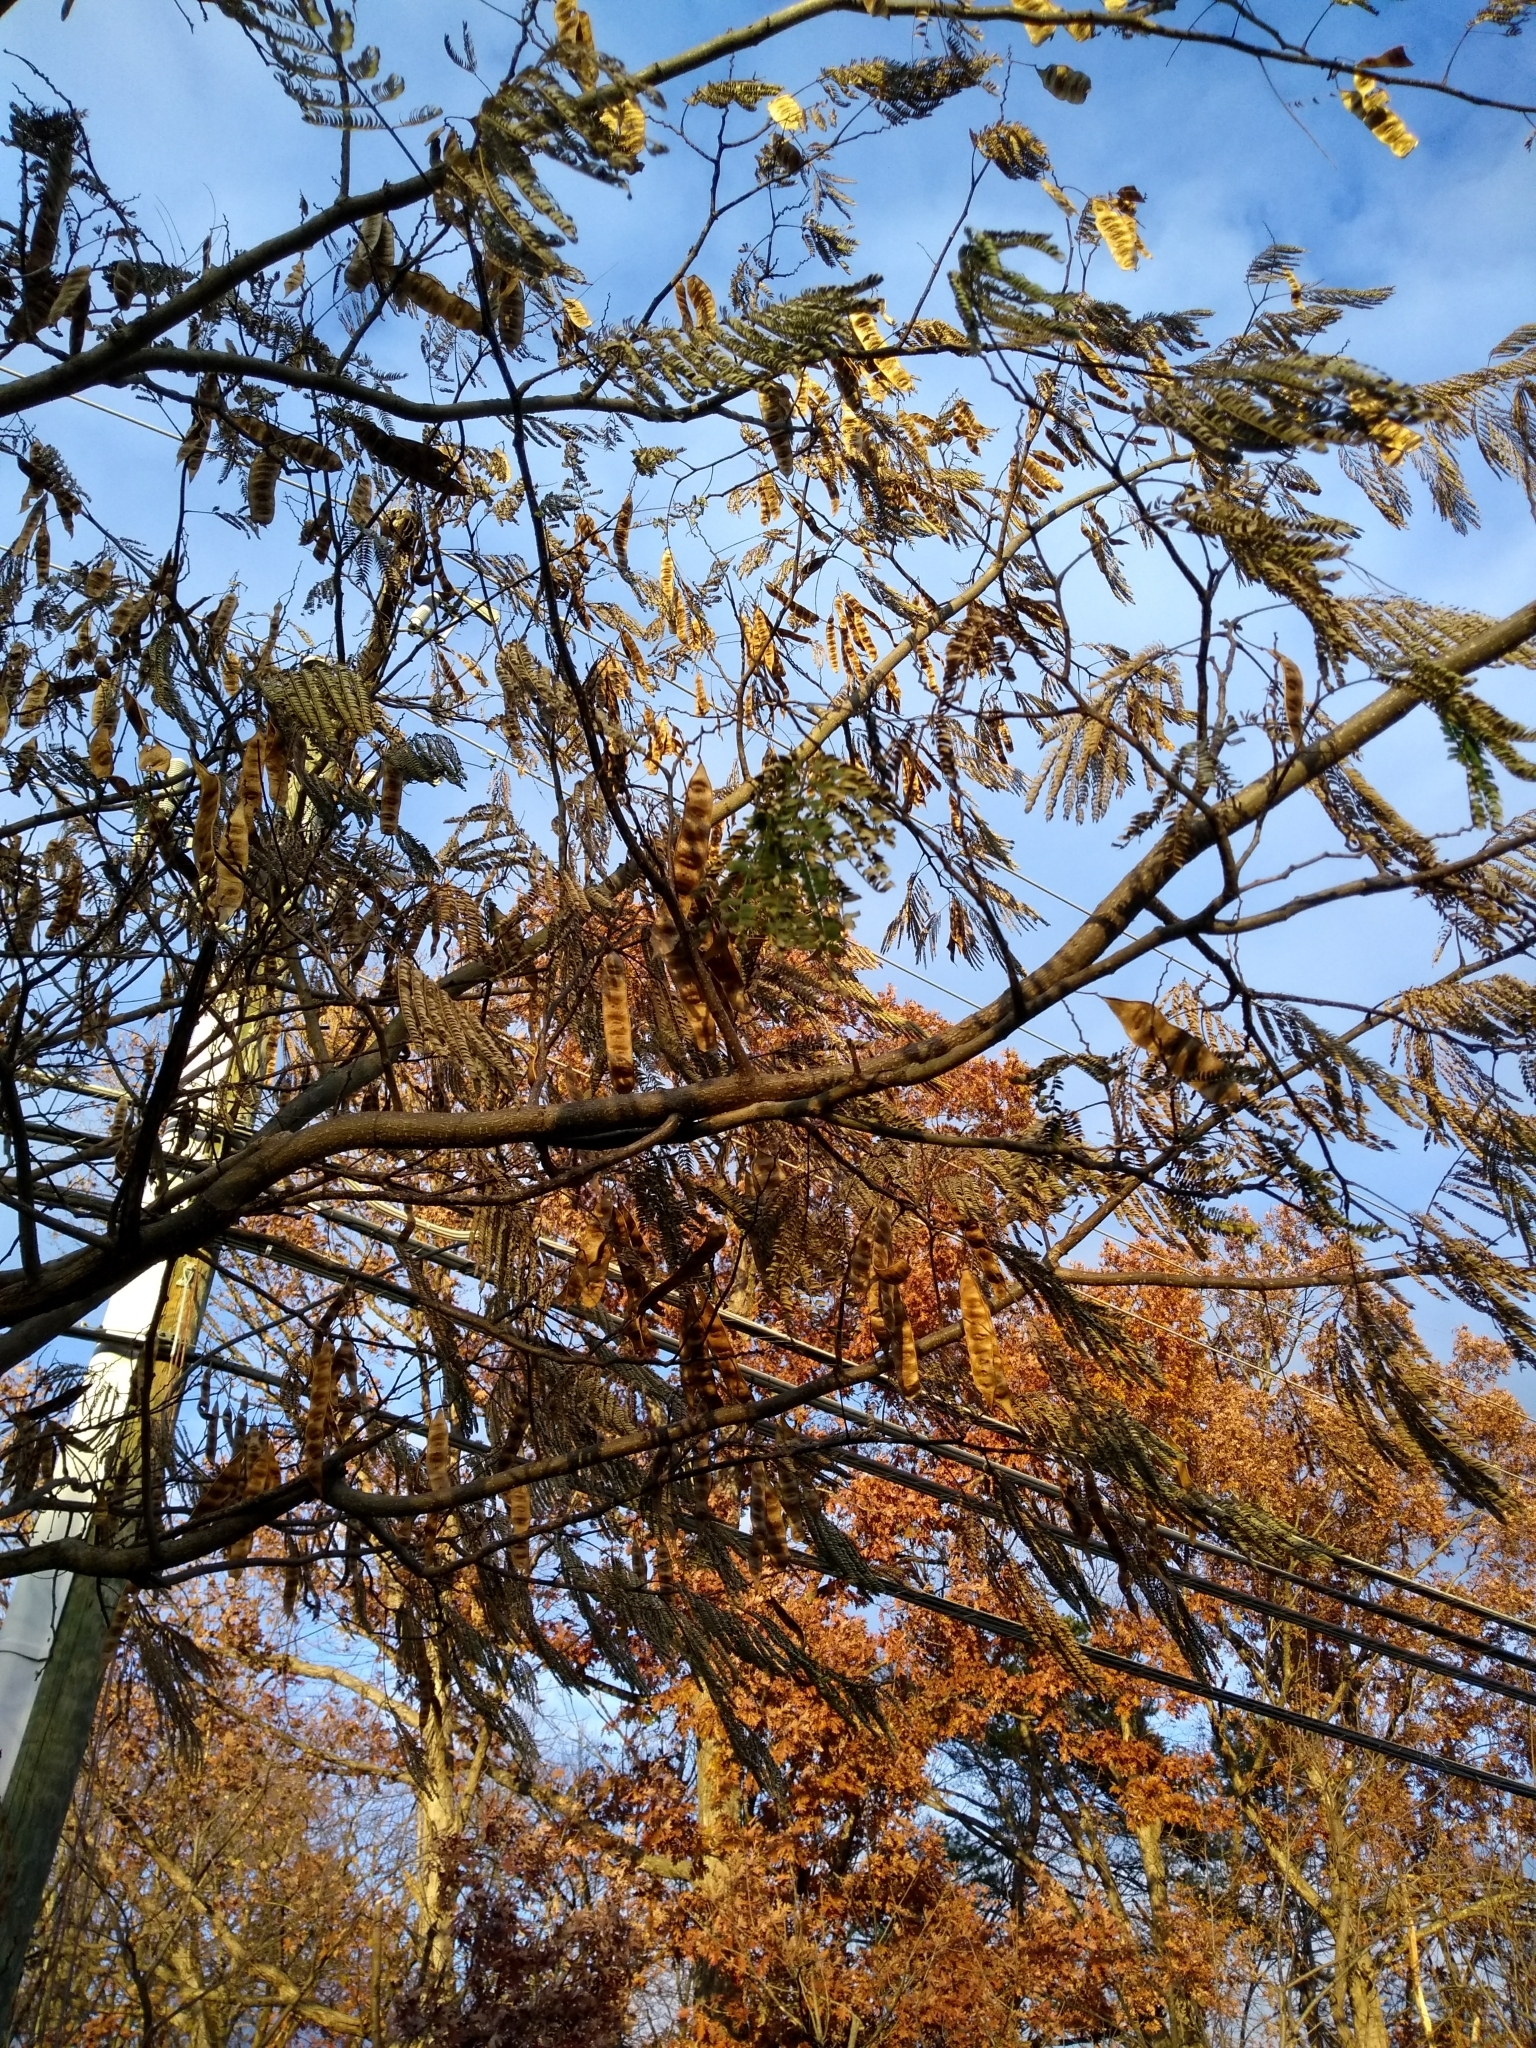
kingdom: Plantae
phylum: Tracheophyta
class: Magnoliopsida
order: Fabales
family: Fabaceae
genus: Albizia
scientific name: Albizia julibrissin
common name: Silktree
